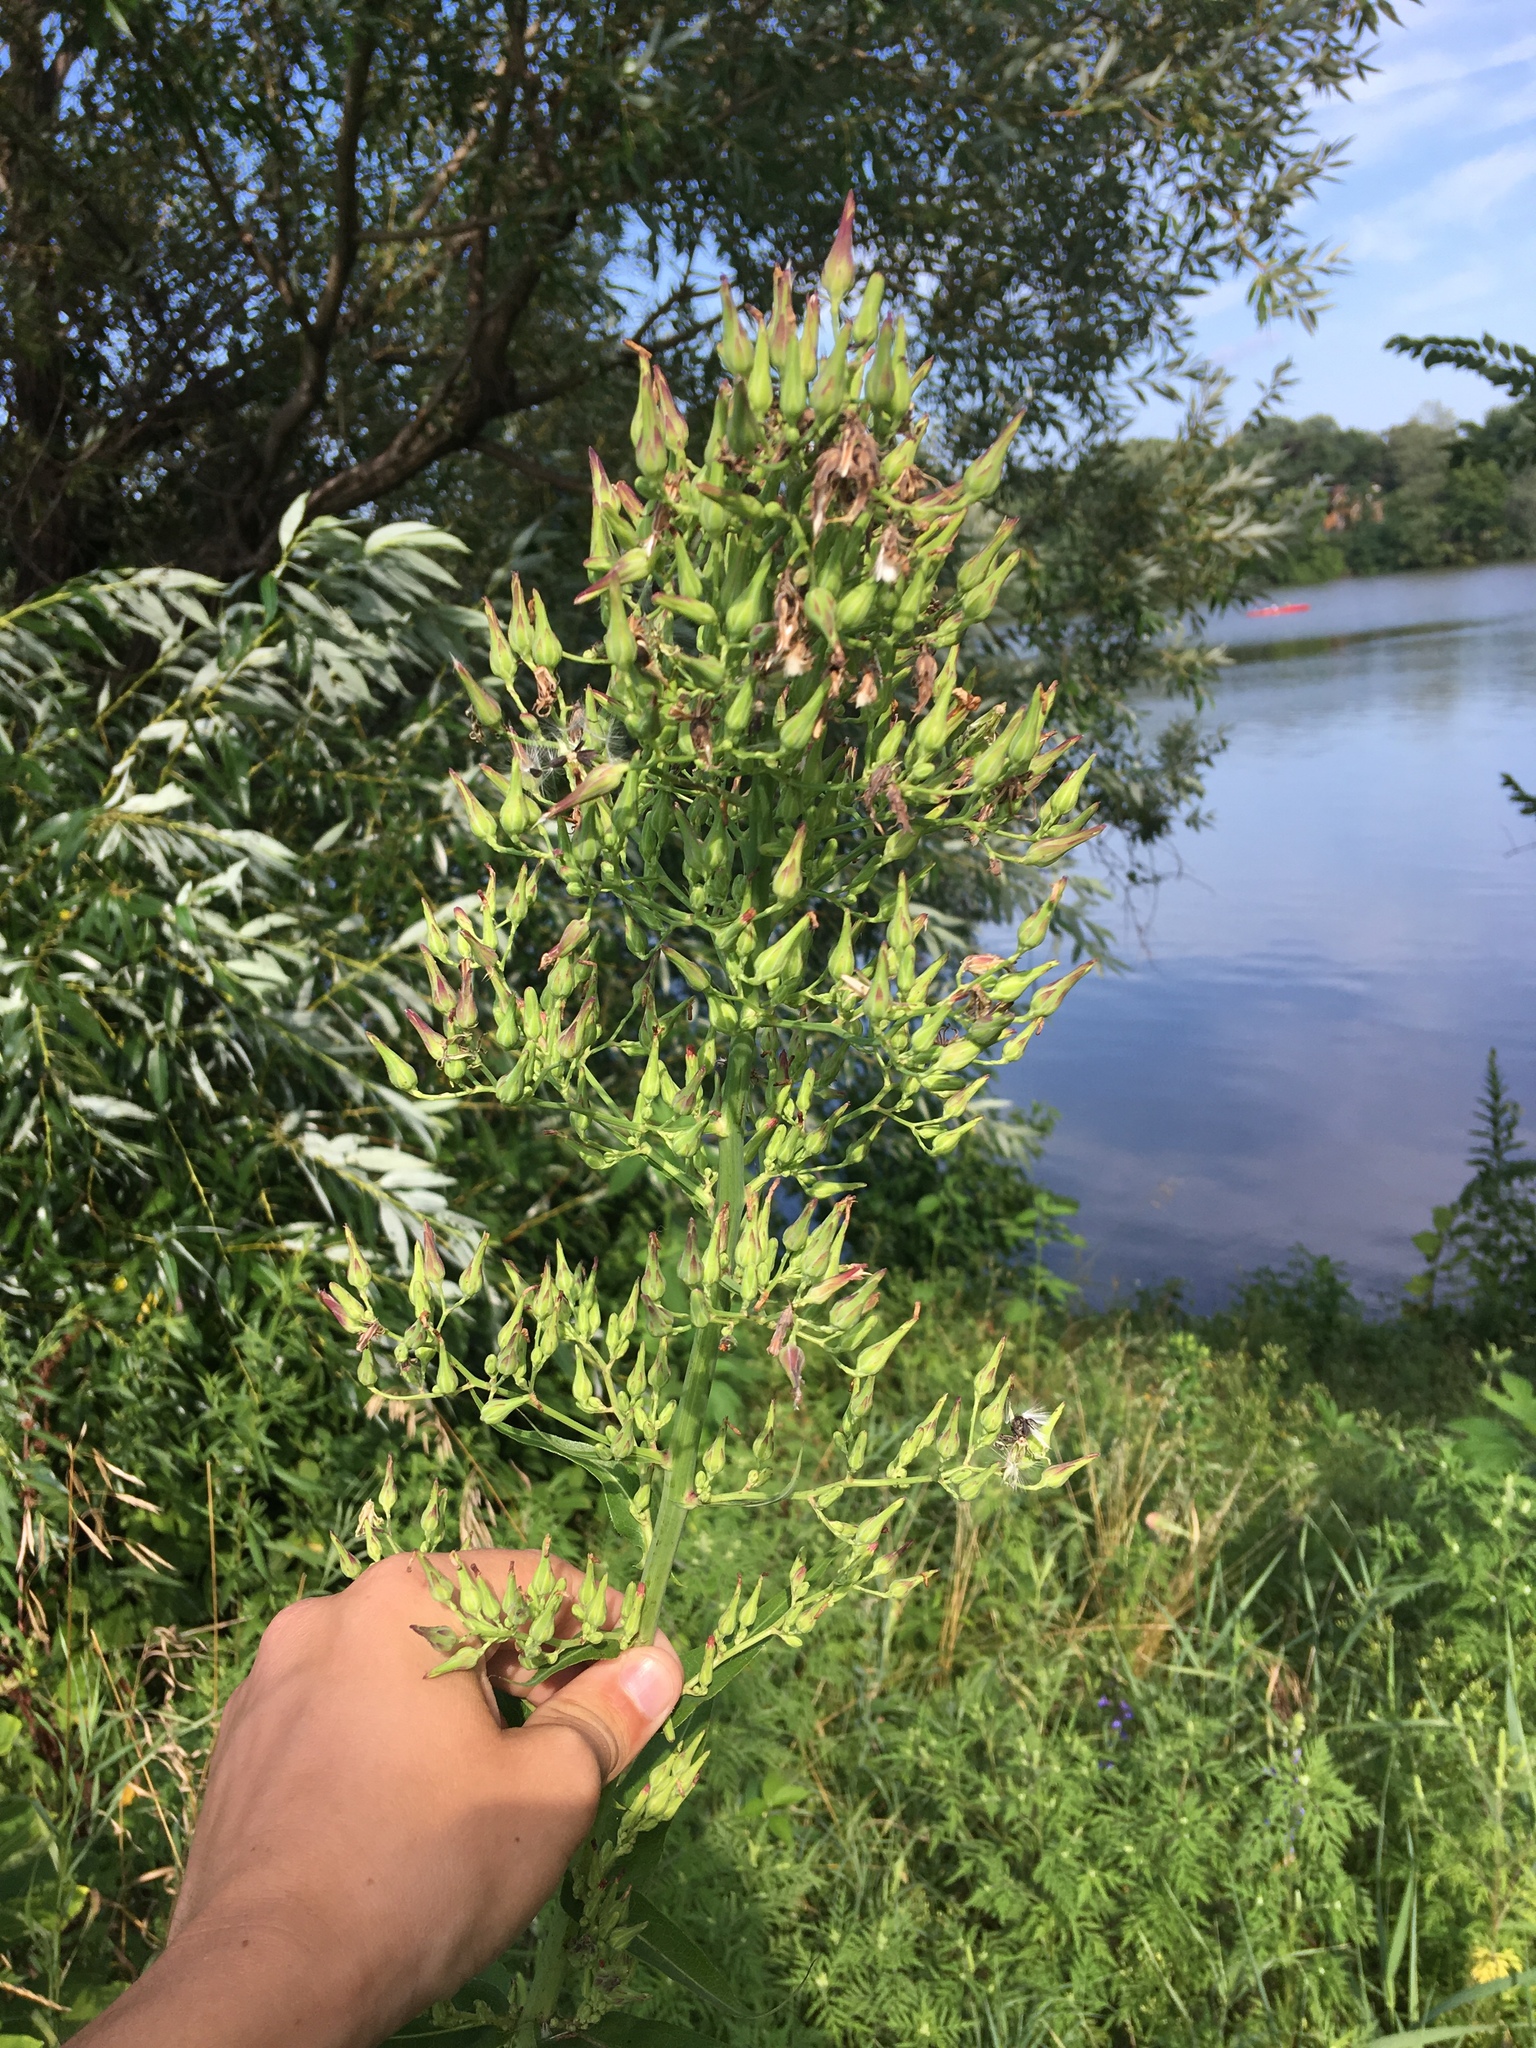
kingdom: Plantae
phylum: Tracheophyta
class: Magnoliopsida
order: Asterales
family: Asteraceae
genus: Lactuca
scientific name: Lactuca canadensis
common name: Canada lettuce
